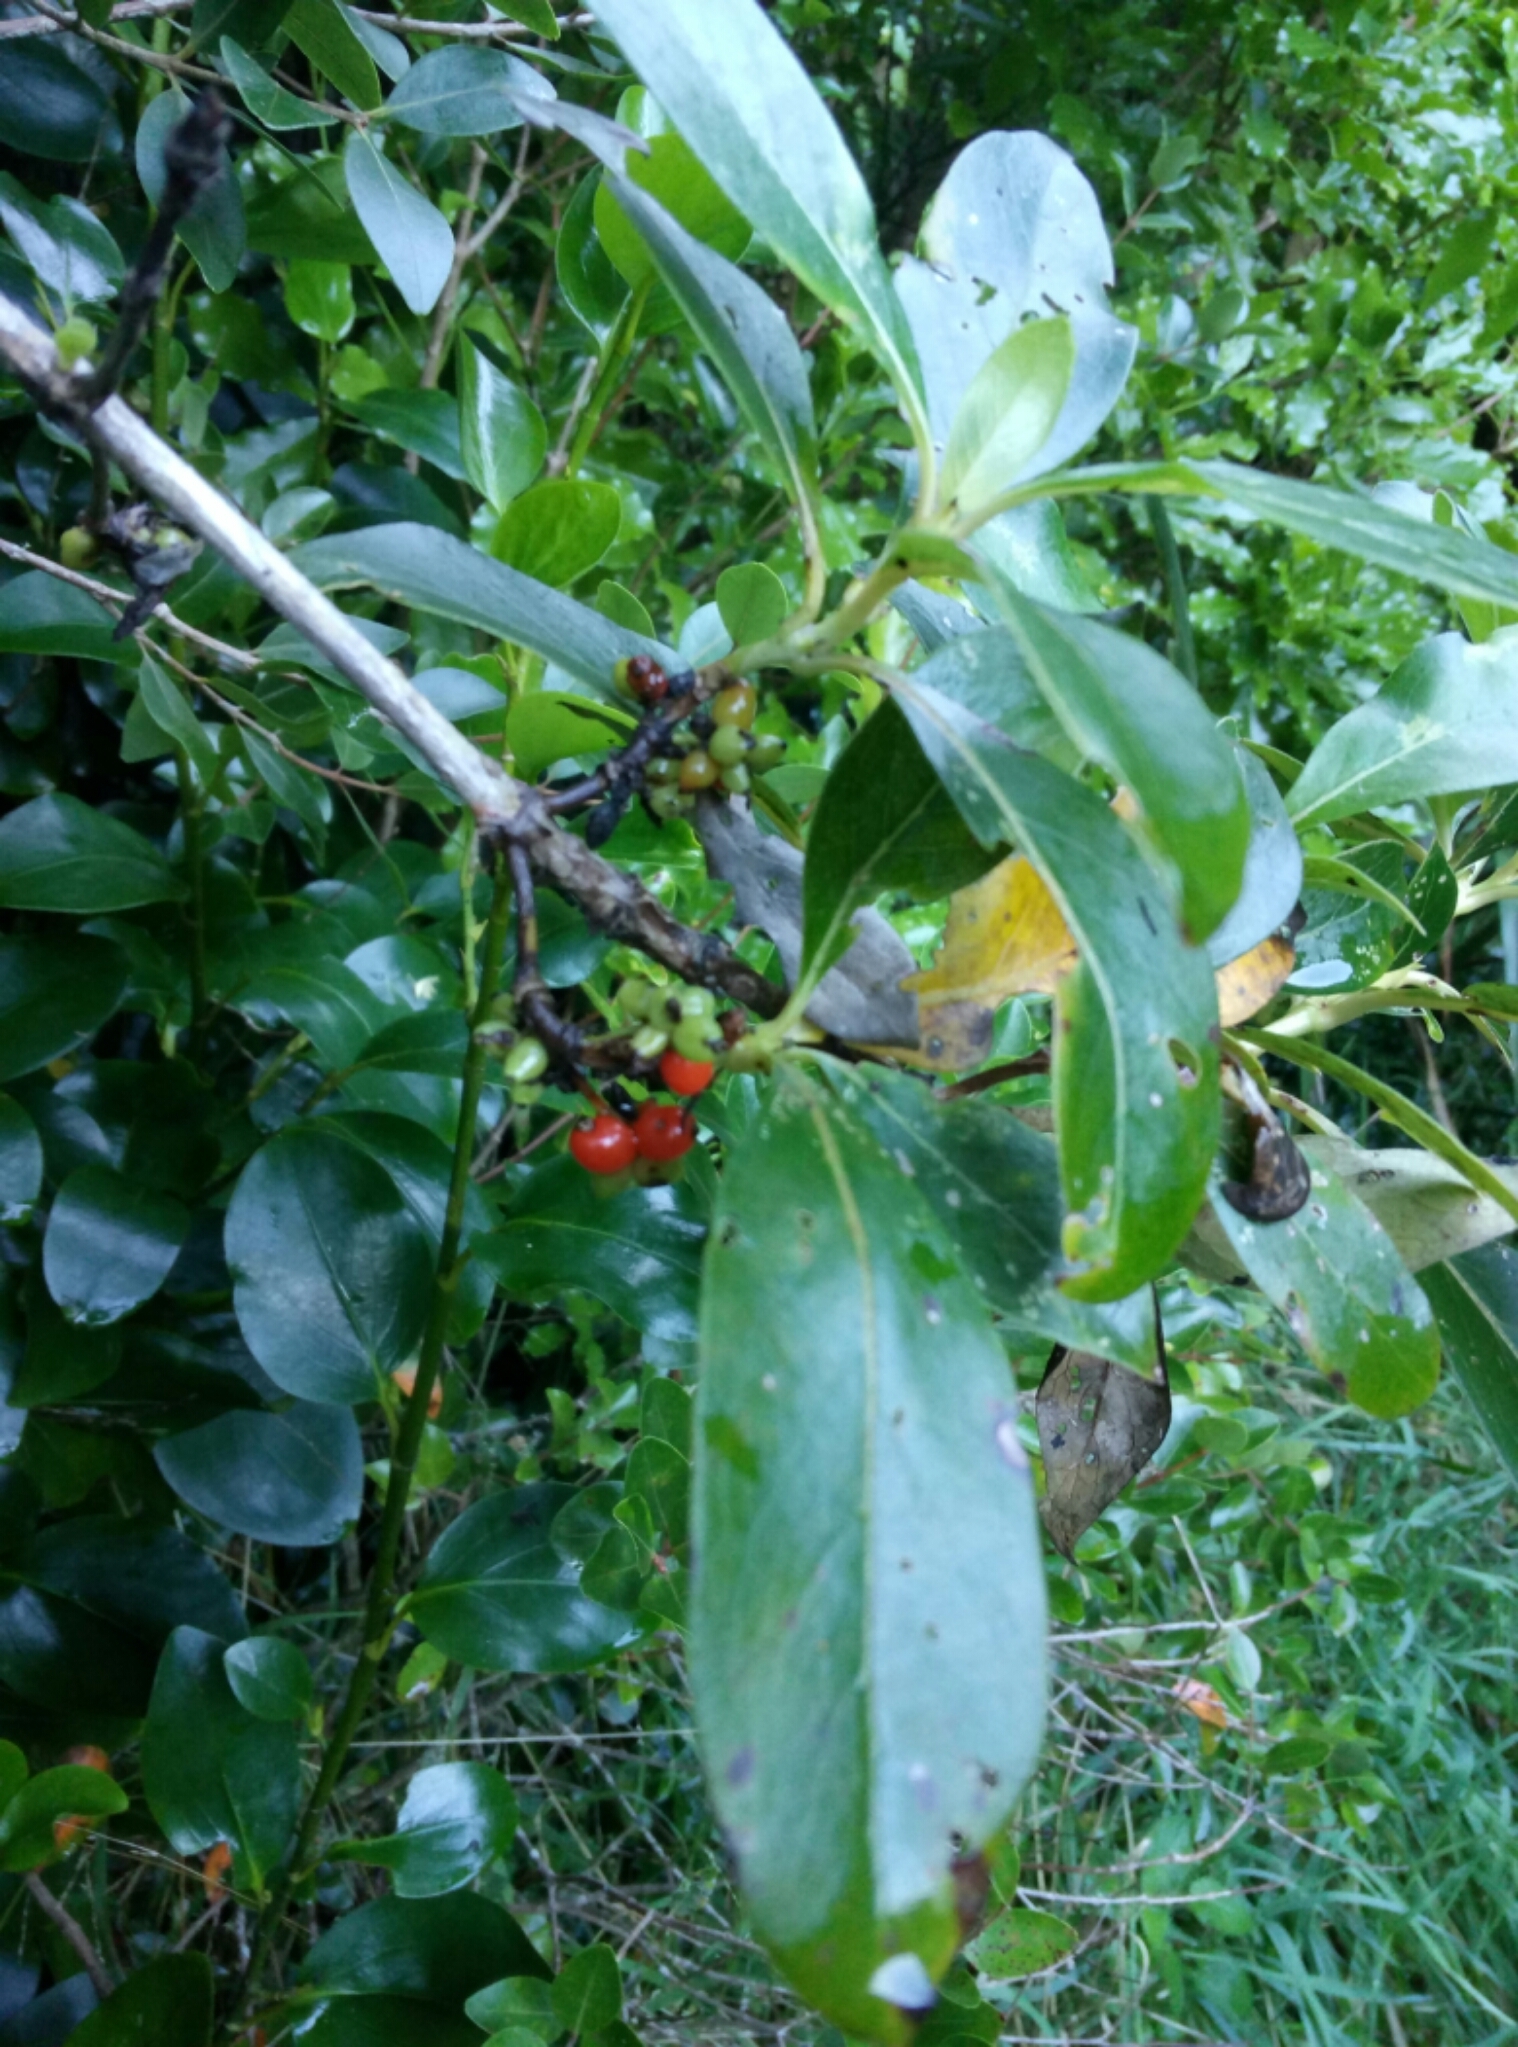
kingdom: Plantae
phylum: Tracheophyta
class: Magnoliopsida
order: Gentianales
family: Rubiaceae
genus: Coprosma
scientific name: Coprosma robusta
